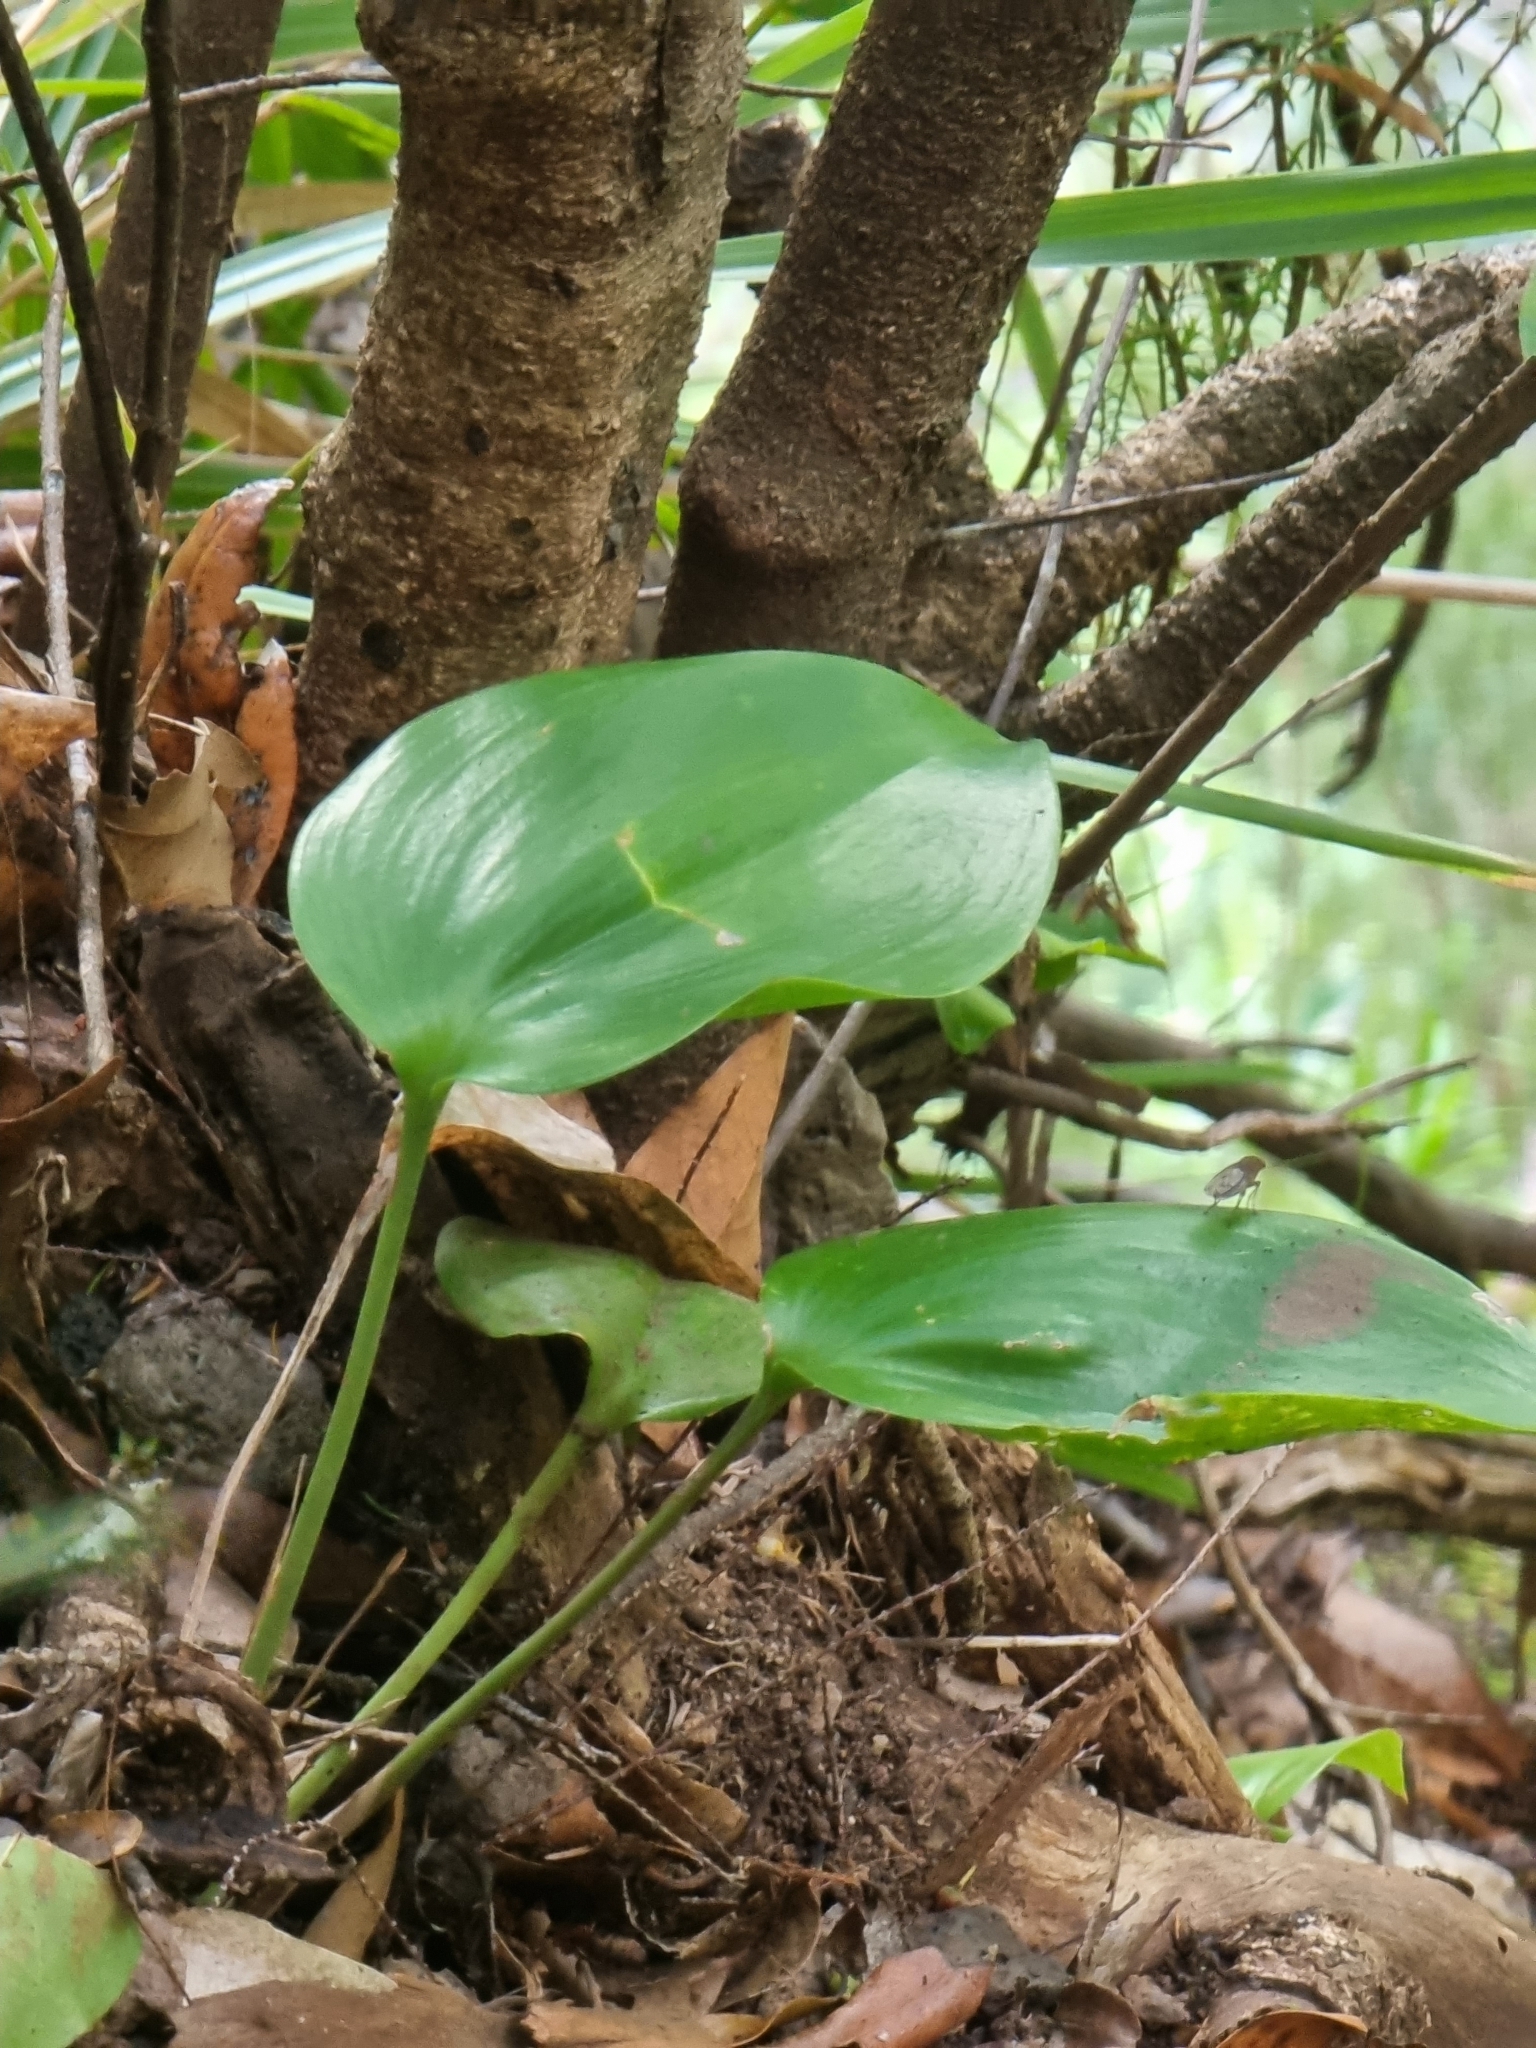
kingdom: Plantae
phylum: Tracheophyta
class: Liliopsida
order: Asparagales
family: Orchidaceae
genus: Gennaria
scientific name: Gennaria diphylla
